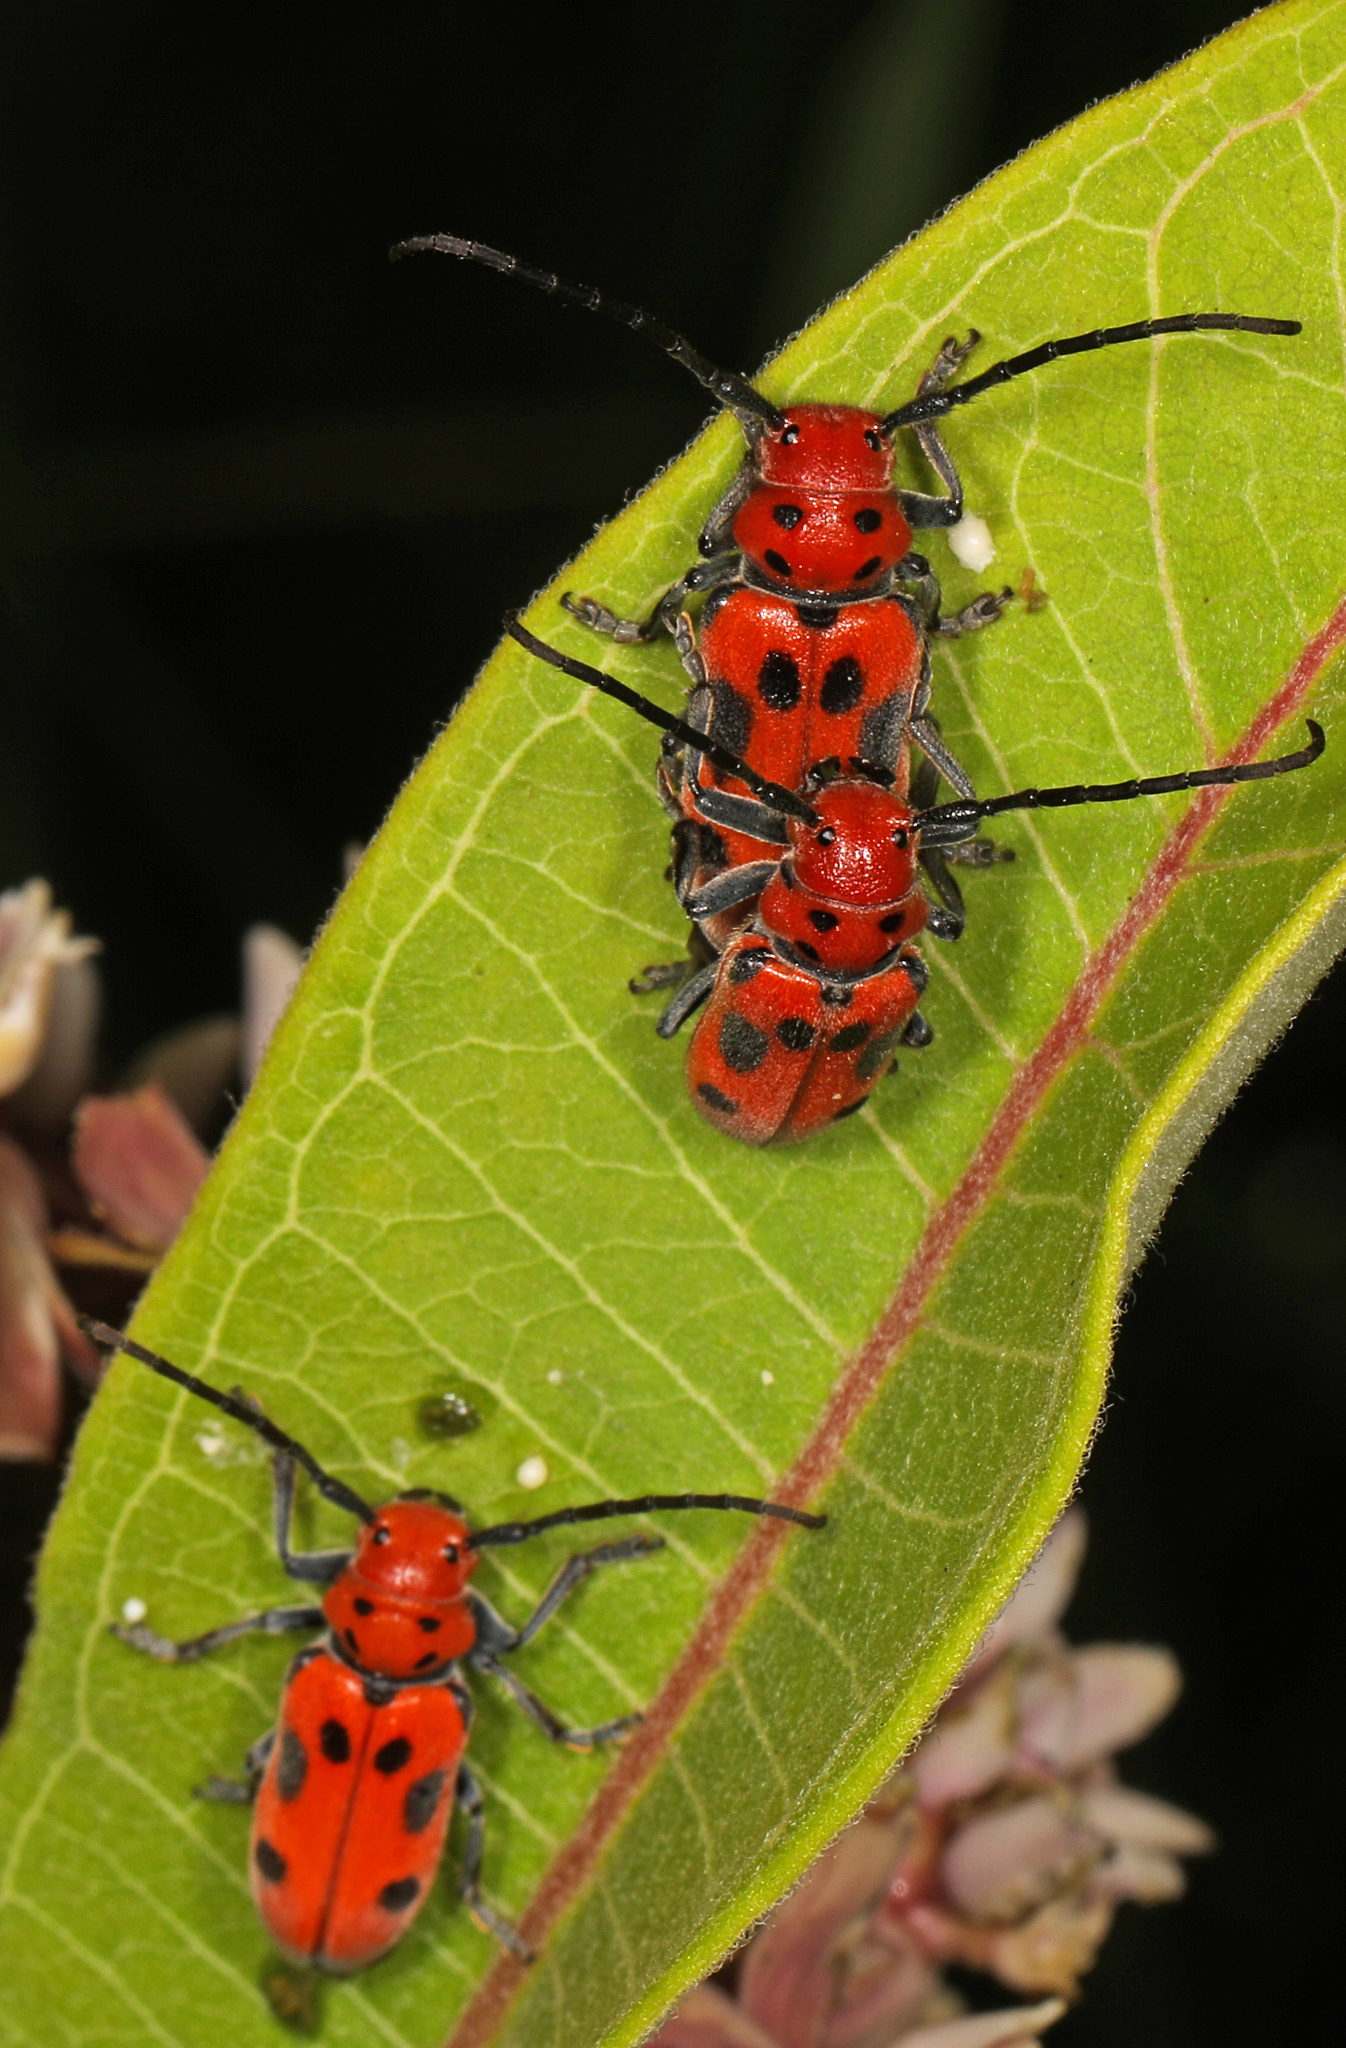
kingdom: Animalia
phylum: Arthropoda
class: Insecta
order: Coleoptera
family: Cerambycidae
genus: Tetraopes
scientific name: Tetraopes tetrophthalmus
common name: Red milkweed beetle
